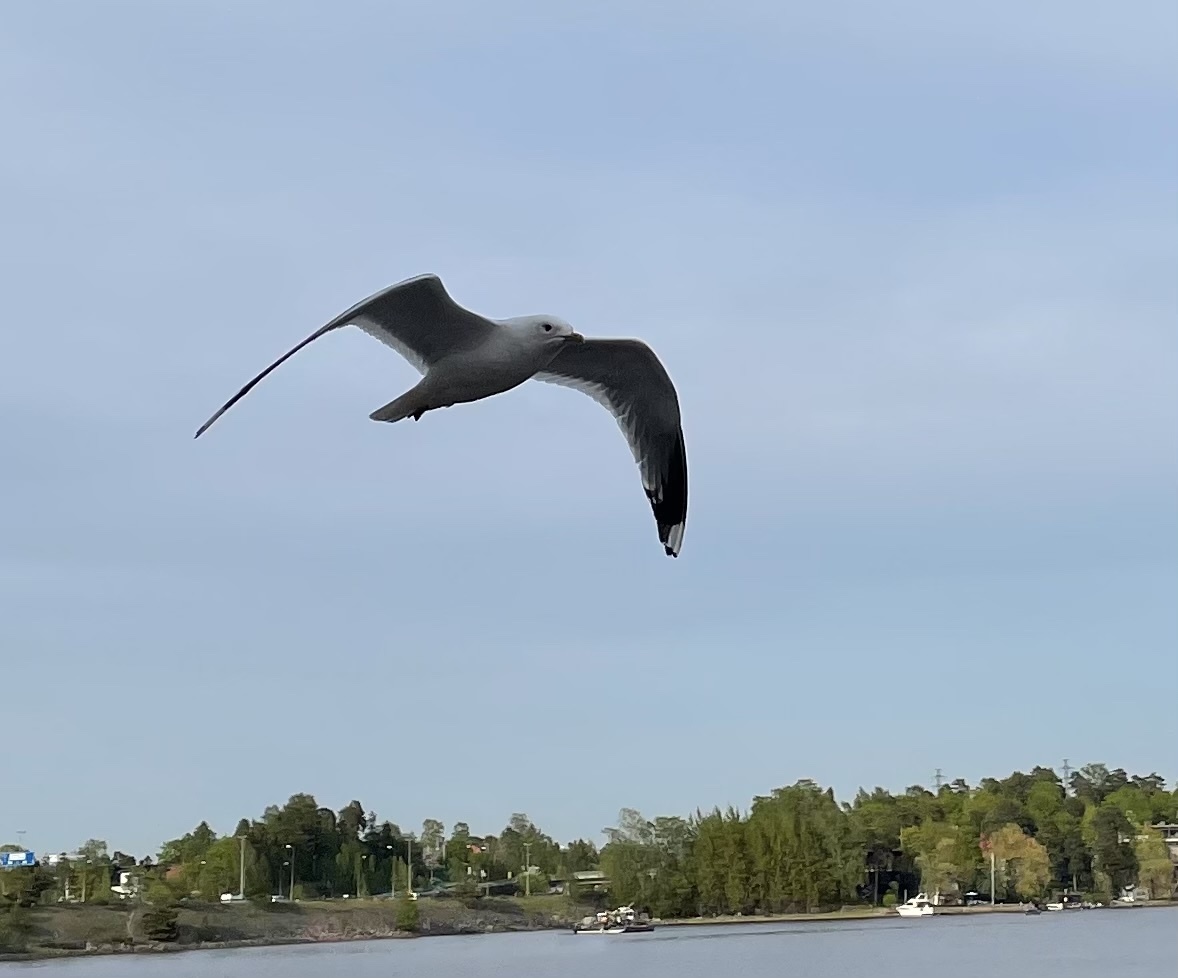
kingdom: Animalia
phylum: Chordata
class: Aves
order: Charadriiformes
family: Laridae
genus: Larus
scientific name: Larus canus
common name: Mew gull
